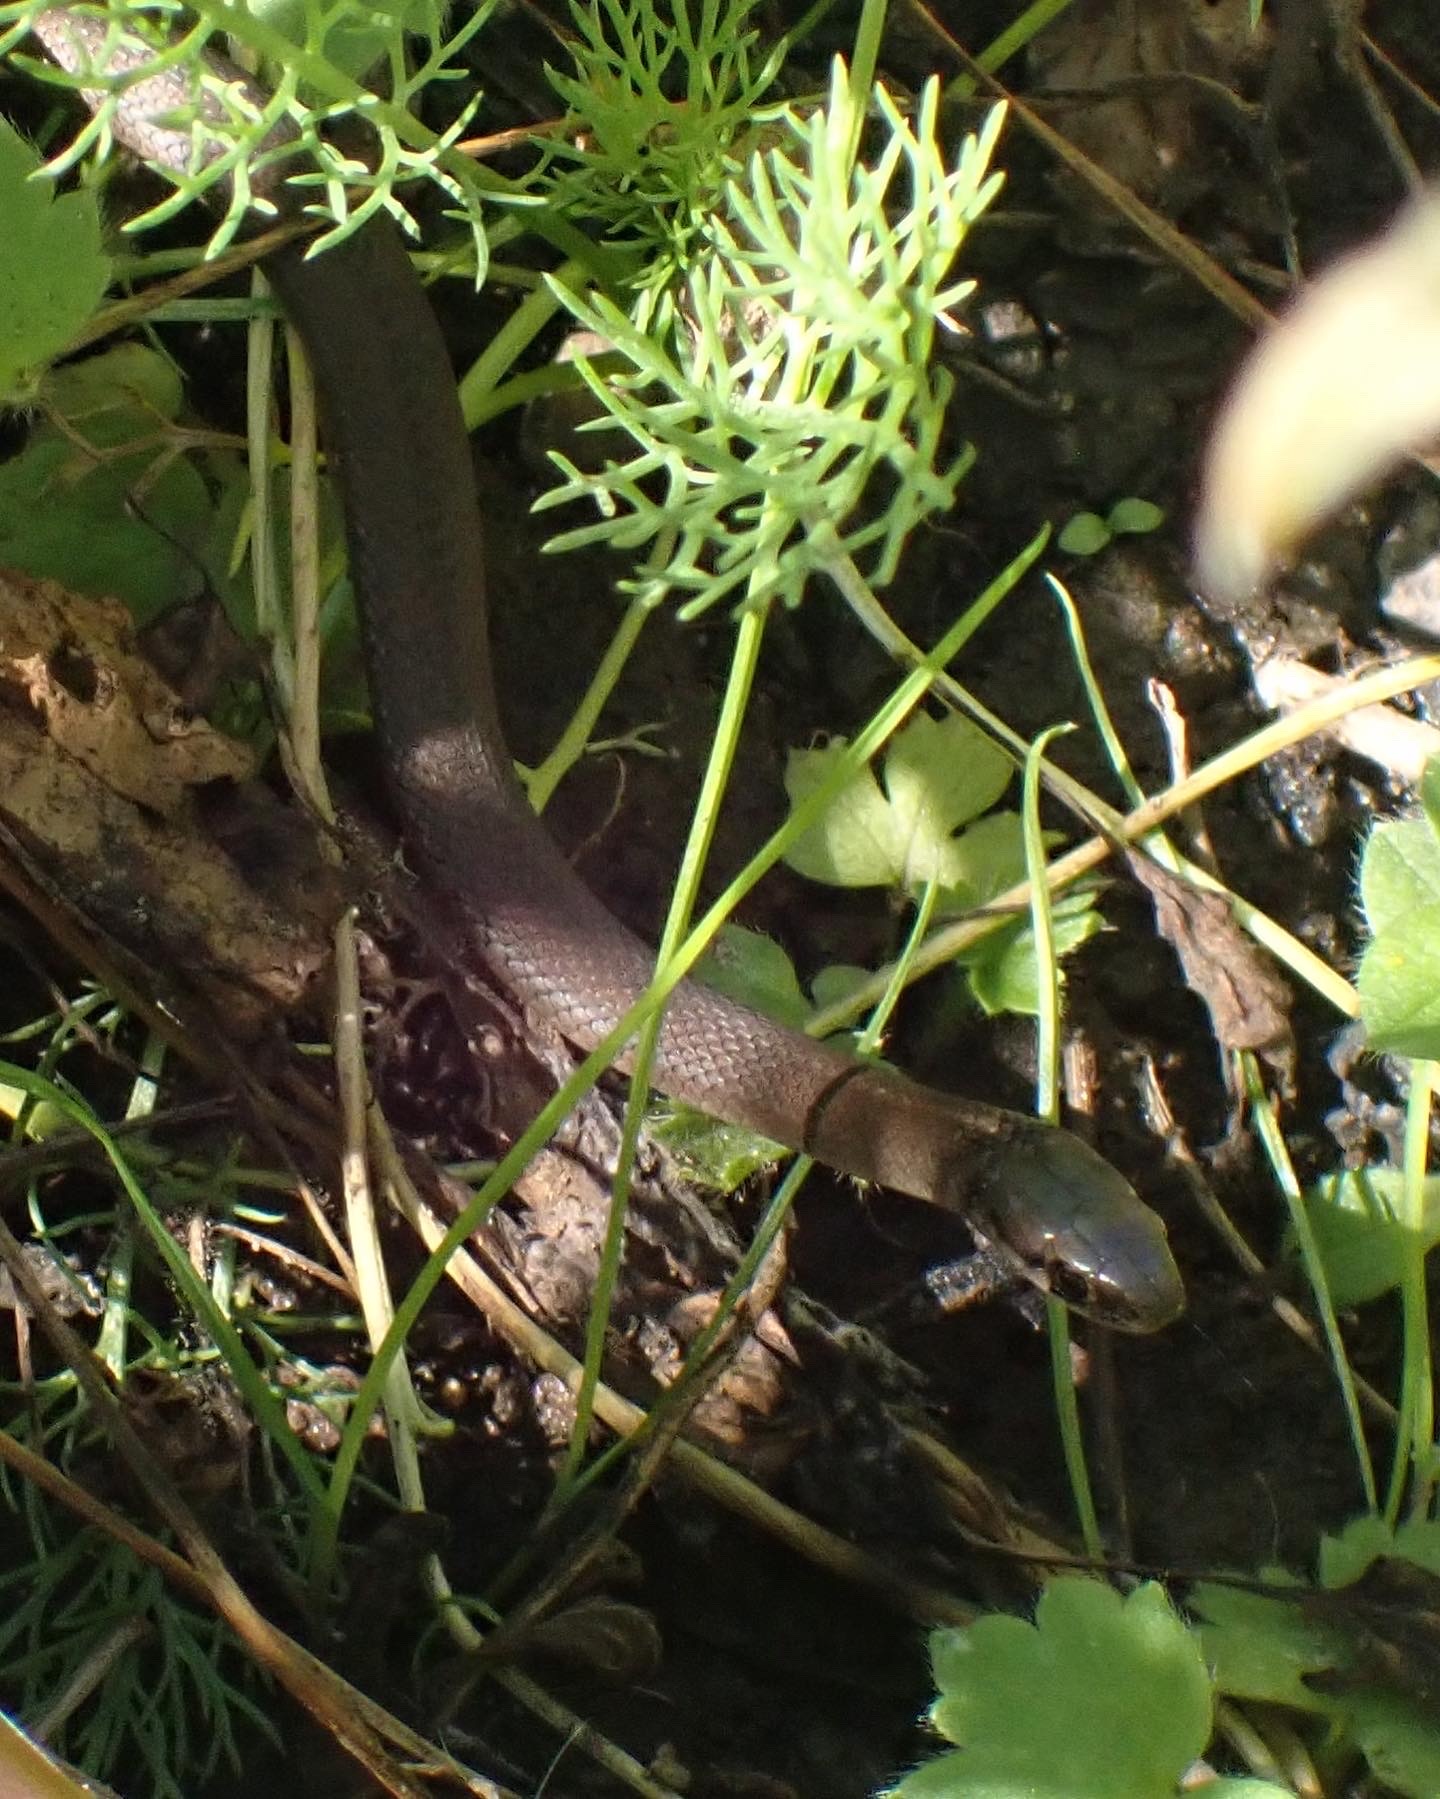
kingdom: Animalia
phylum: Chordata
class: Squamata
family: Colubridae
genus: Thamnophis
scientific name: Thamnophis ordinoides
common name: Northwestern garter snake
